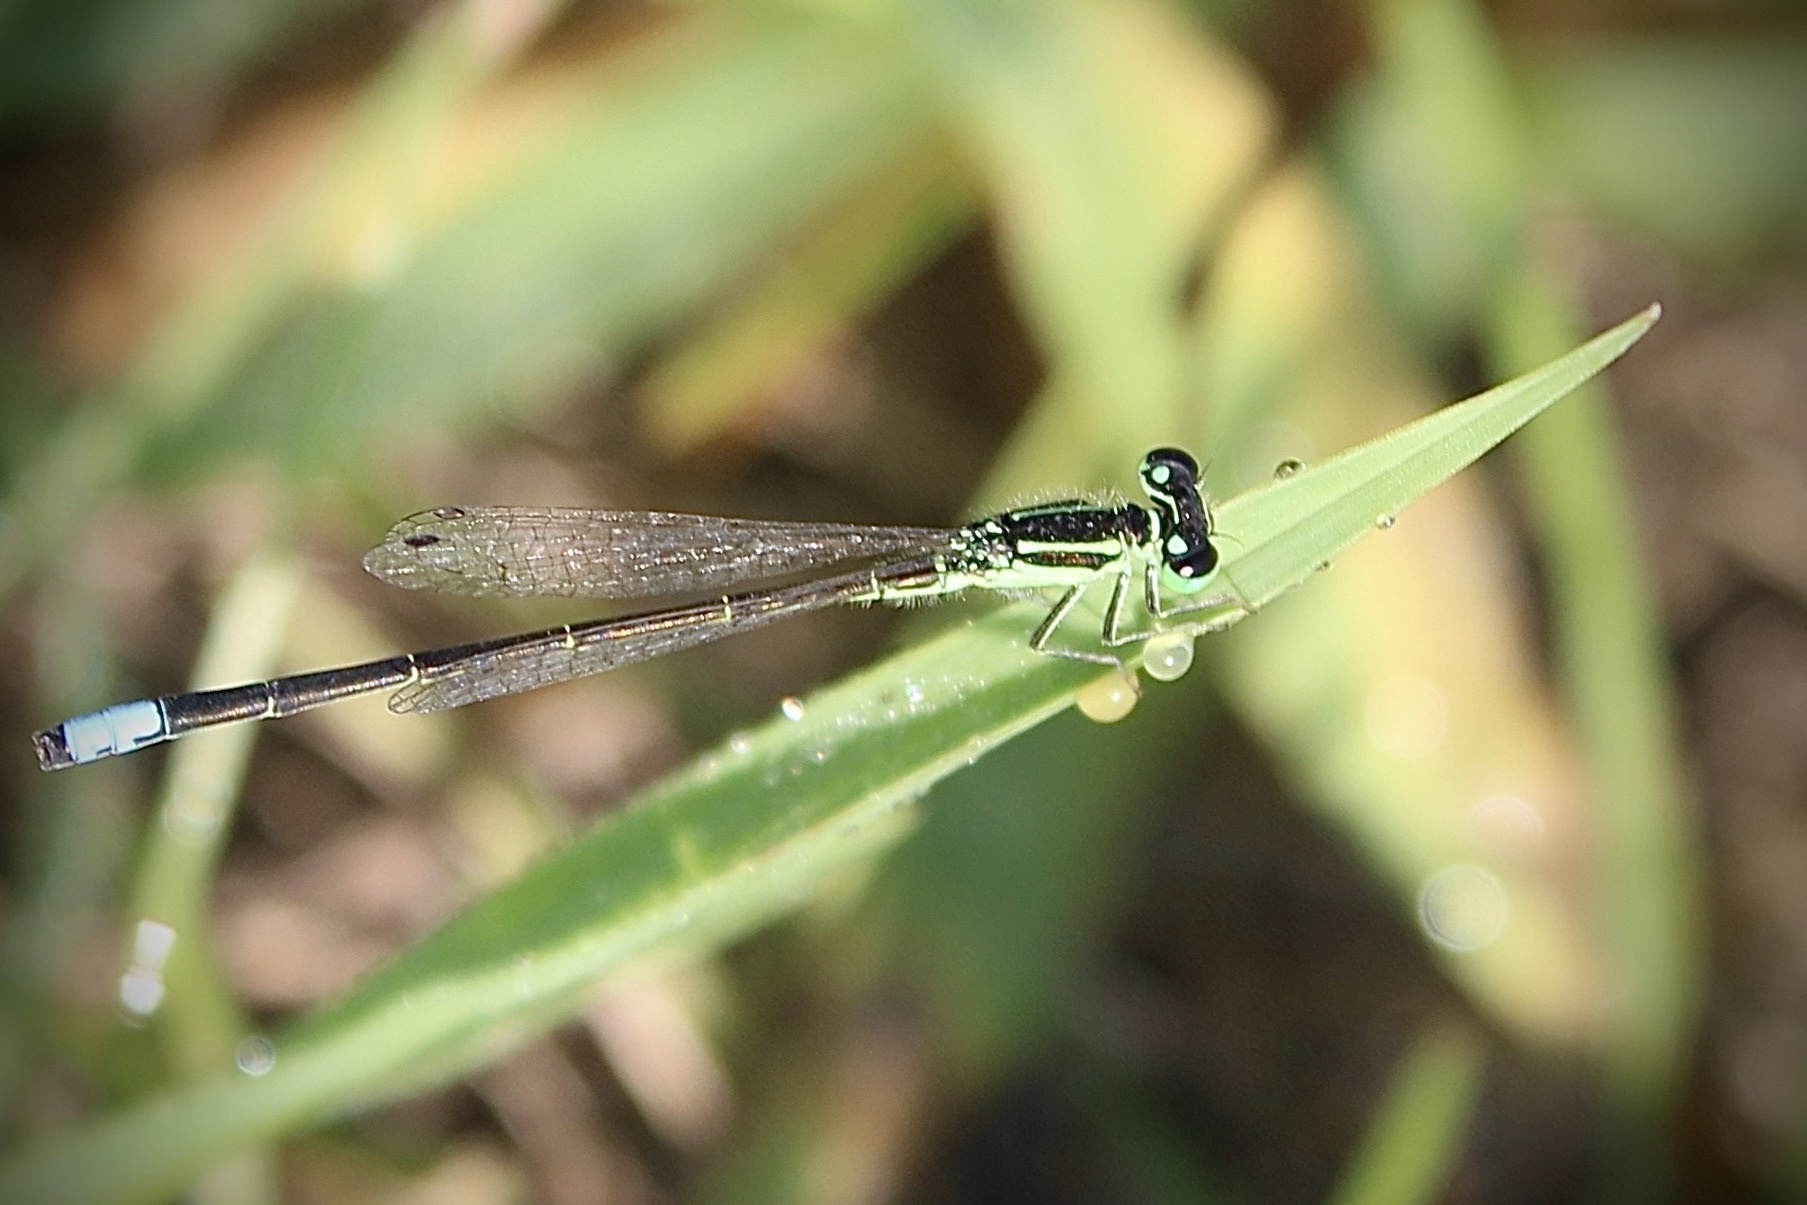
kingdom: Animalia
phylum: Arthropoda
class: Insecta
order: Odonata
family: Coenagrionidae
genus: Ischnura
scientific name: Ischnura verticalis
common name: Eastern forktail
